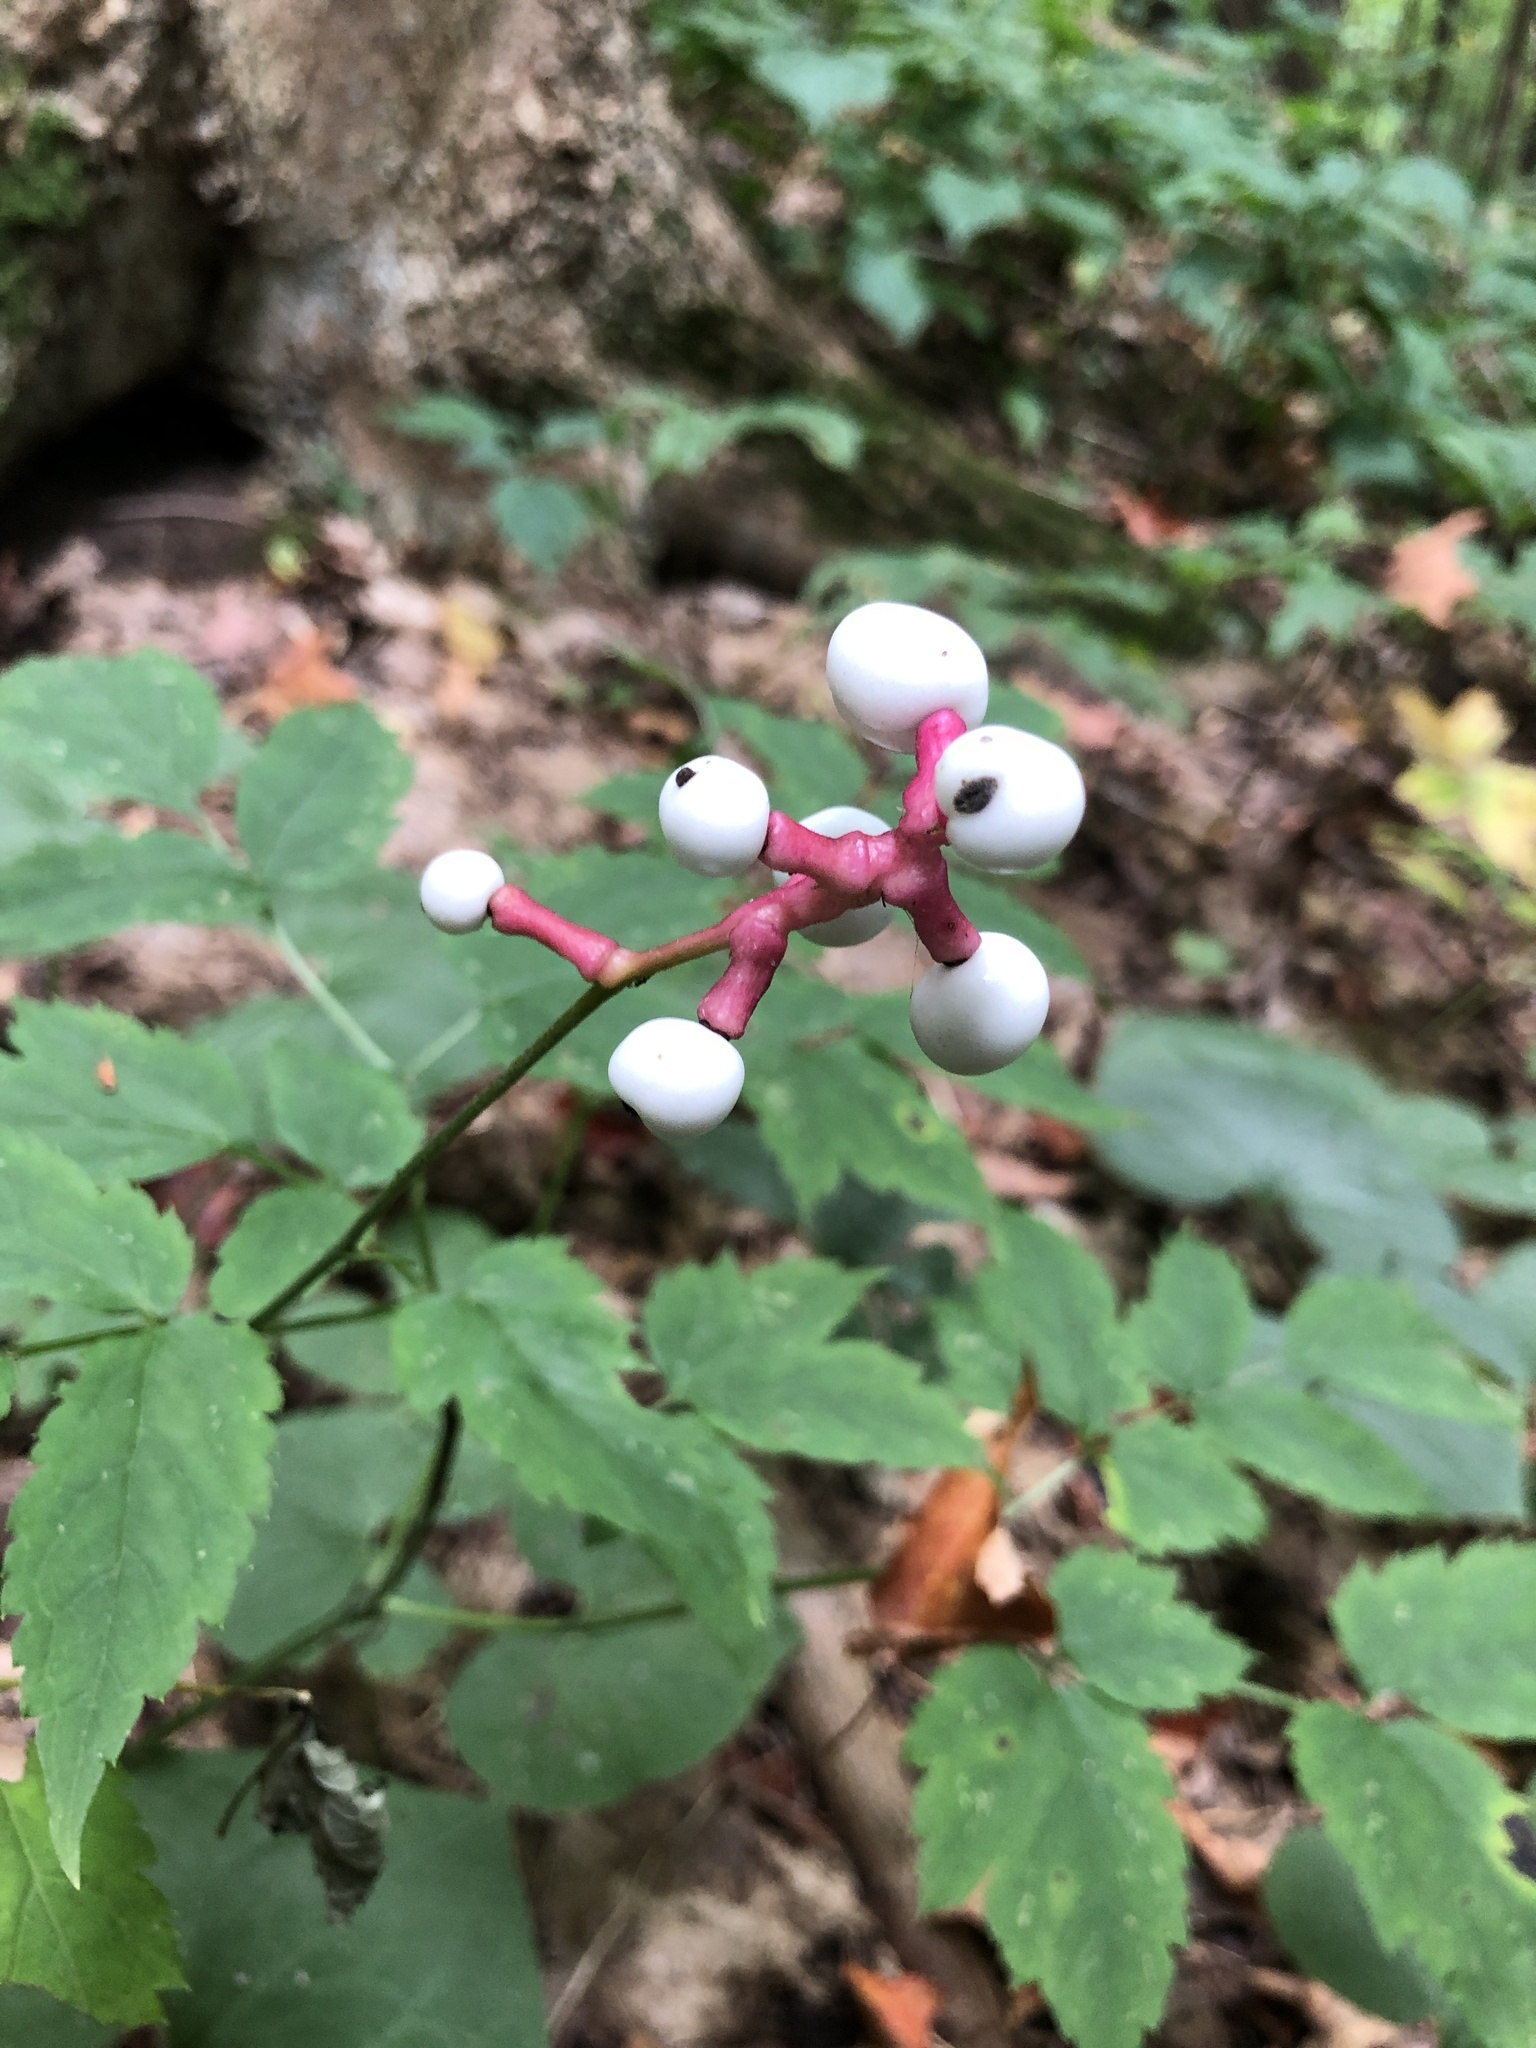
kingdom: Plantae
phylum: Tracheophyta
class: Magnoliopsida
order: Ranunculales
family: Ranunculaceae
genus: Actaea
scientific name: Actaea pachypoda
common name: Doll's-eyes
